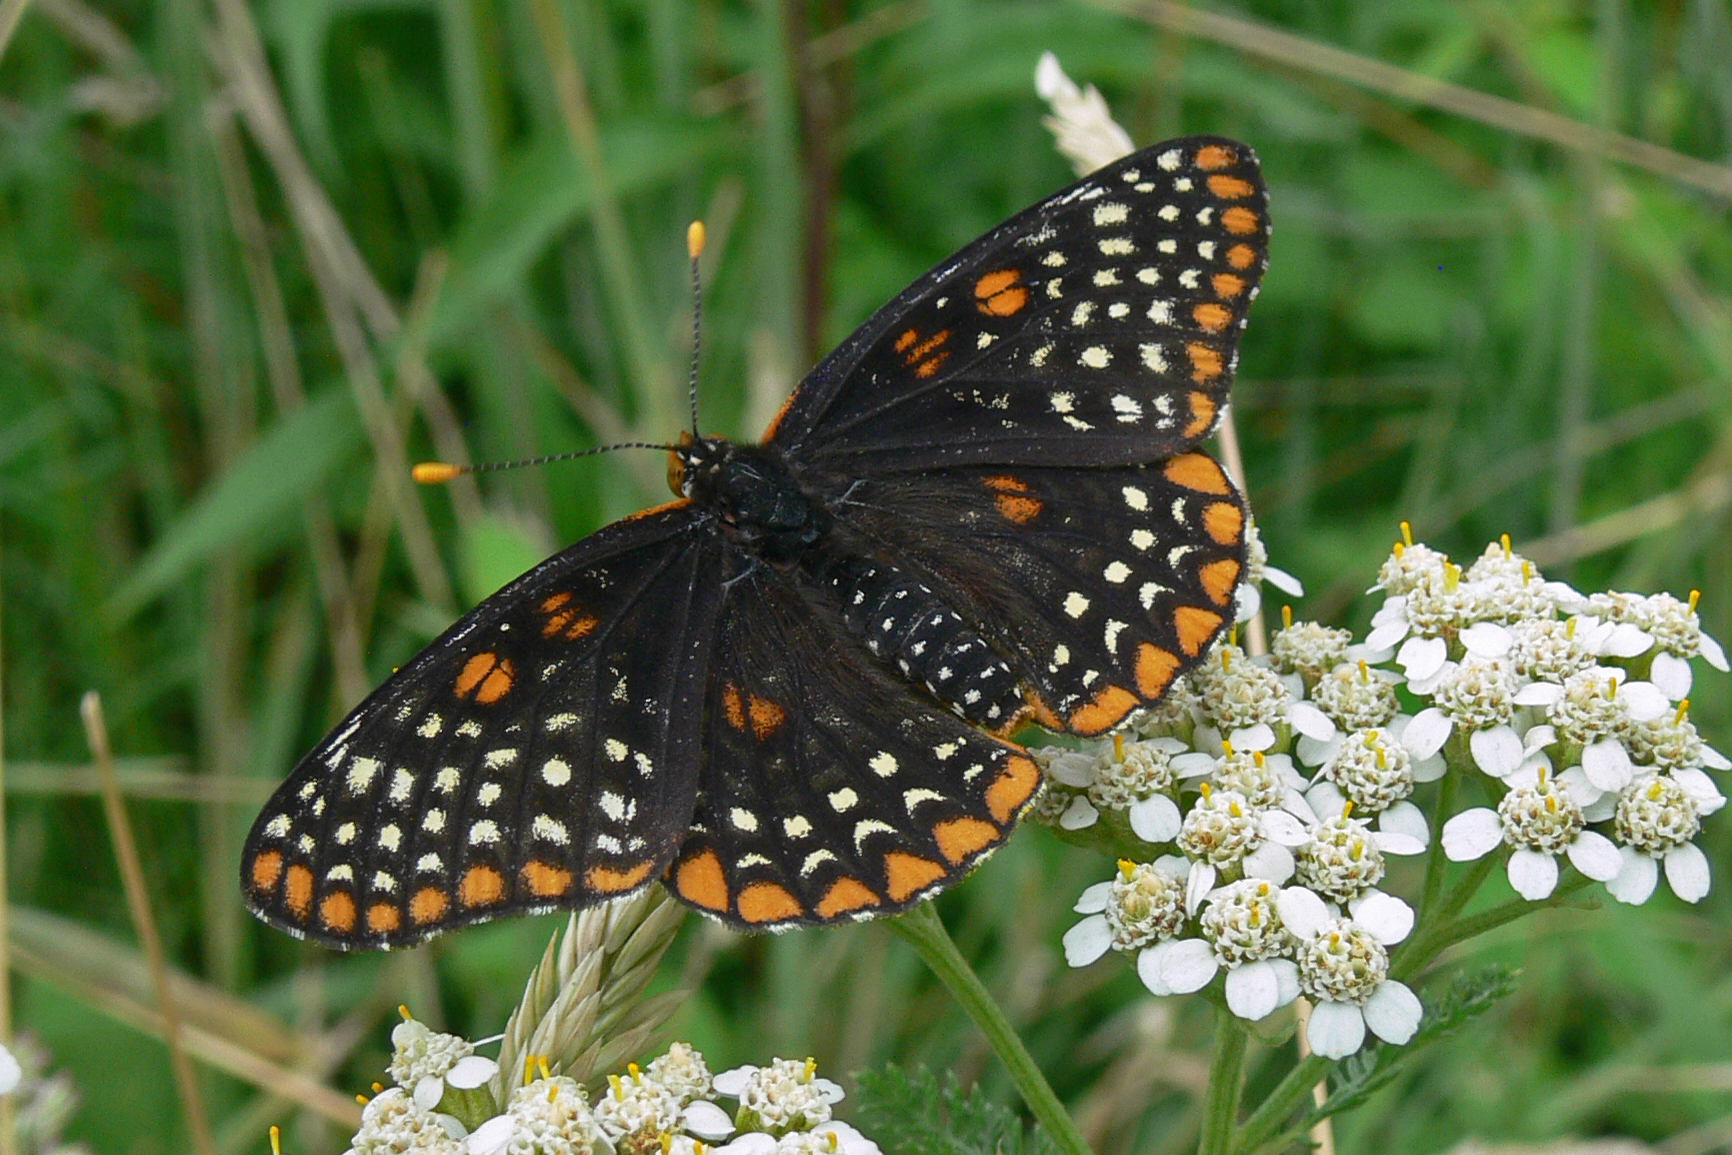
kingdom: Animalia
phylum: Arthropoda
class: Insecta
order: Lepidoptera
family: Nymphalidae
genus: Euphydryas
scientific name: Euphydryas phaeton
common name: Baltimore checkerspot
